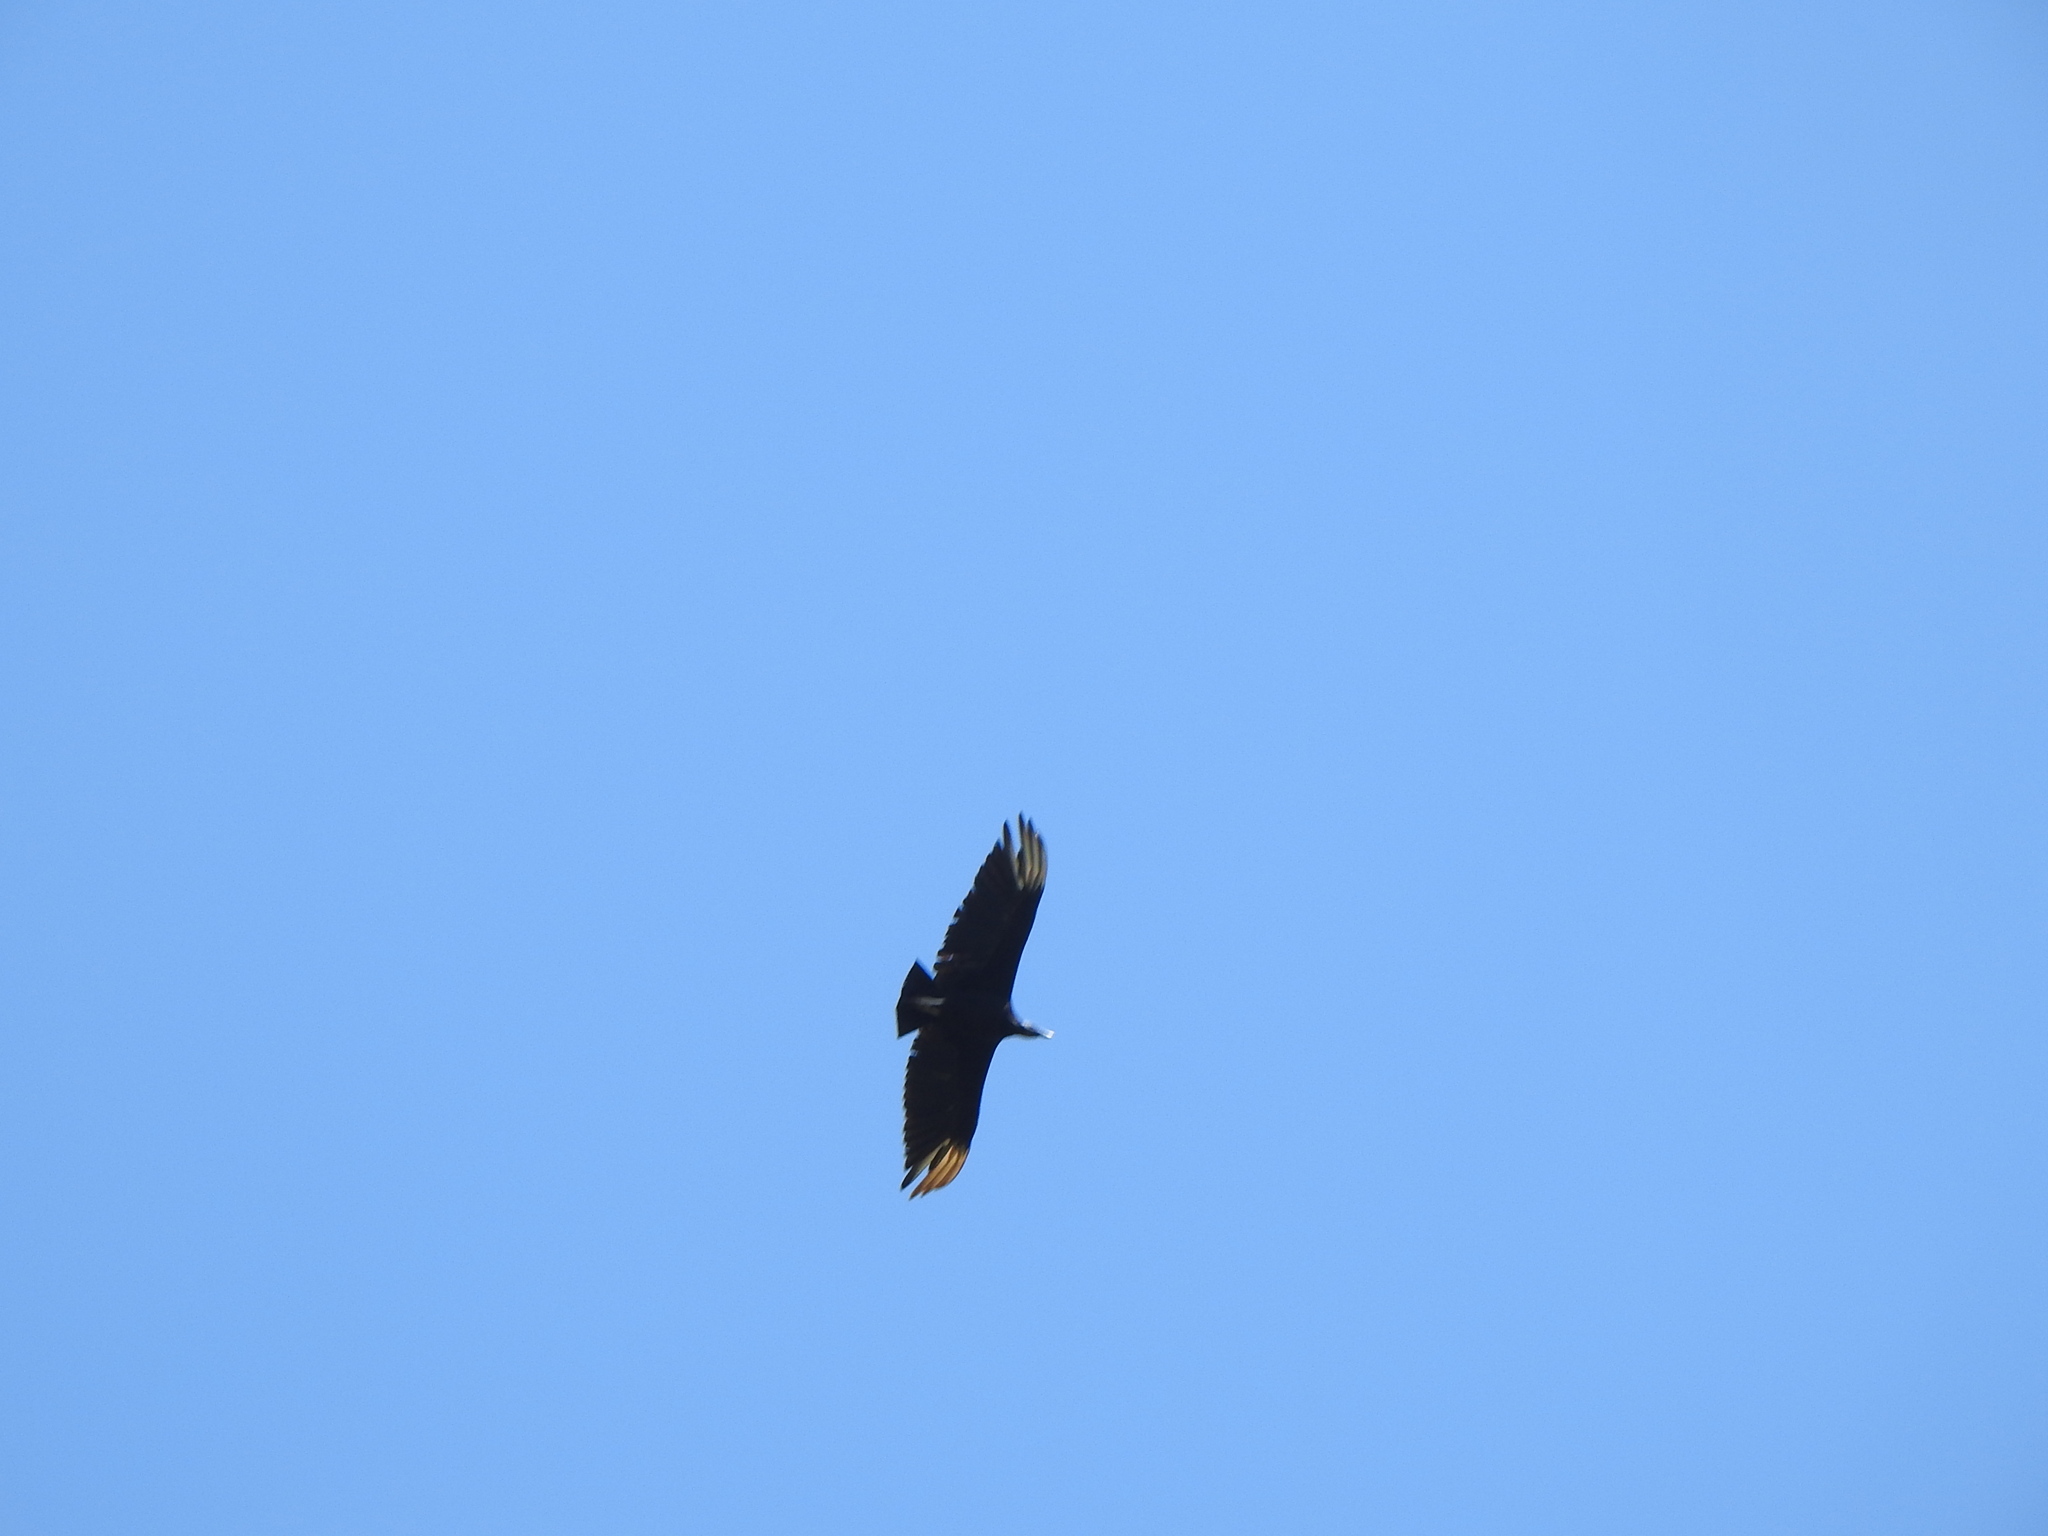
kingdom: Animalia
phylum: Chordata
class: Aves
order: Accipitriformes
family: Cathartidae
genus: Coragyps
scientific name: Coragyps atratus
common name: Black vulture
